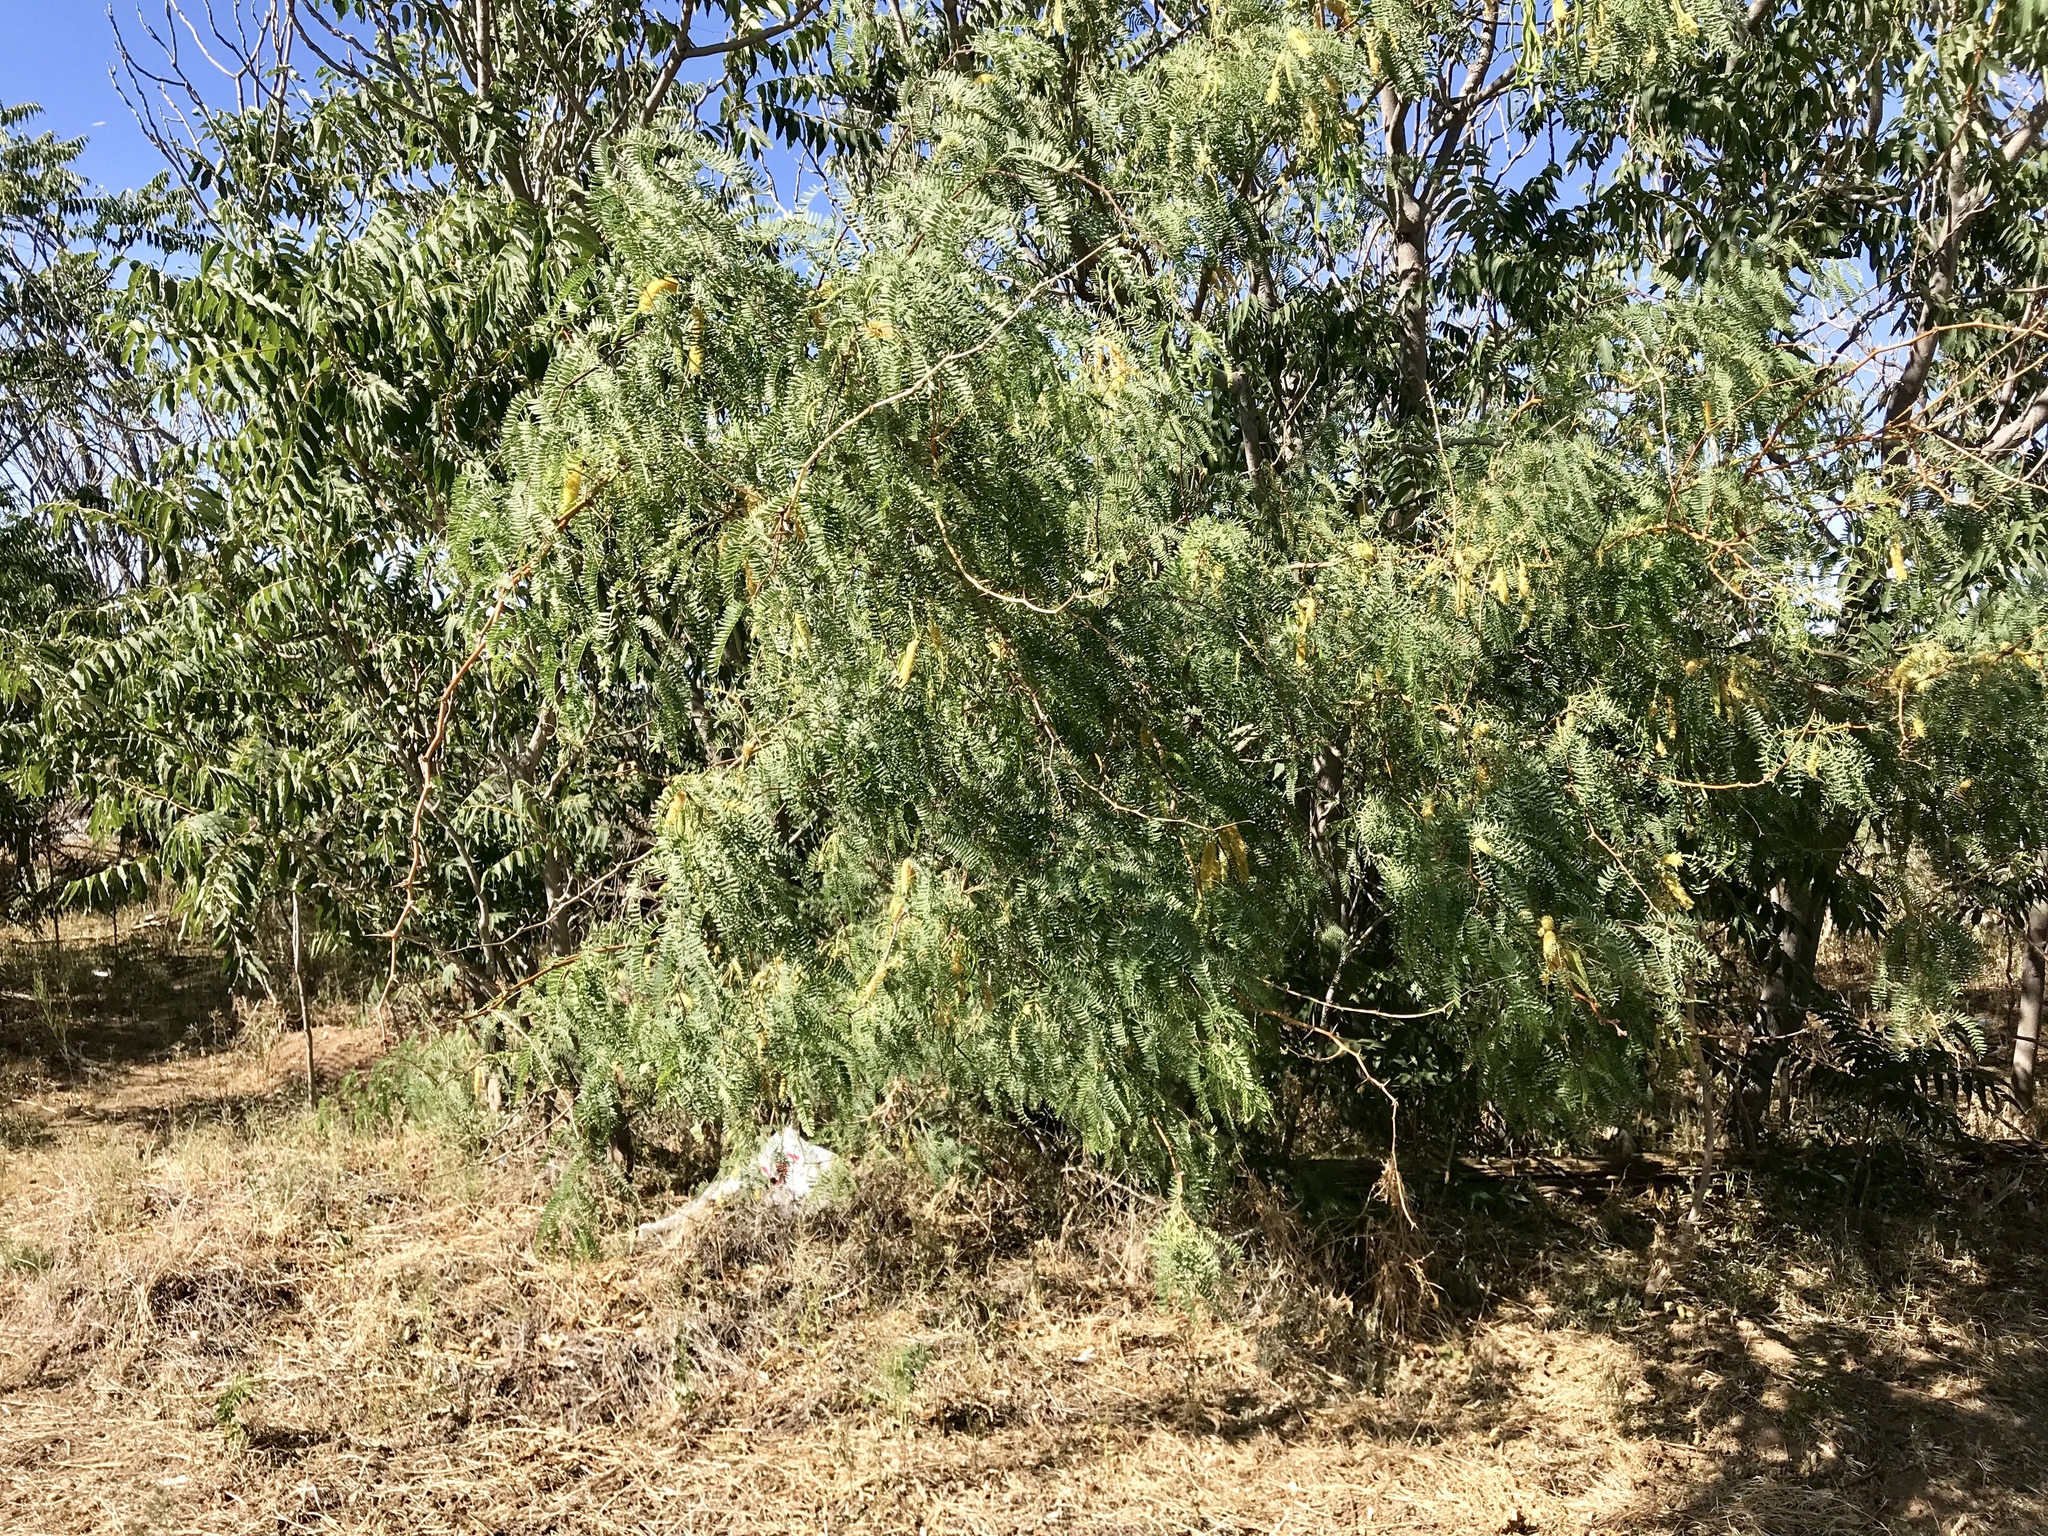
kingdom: Plantae
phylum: Tracheophyta
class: Magnoliopsida
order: Fabales
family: Fabaceae
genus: Prosopis
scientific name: Prosopis glandulosa
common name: Honey mesquite
